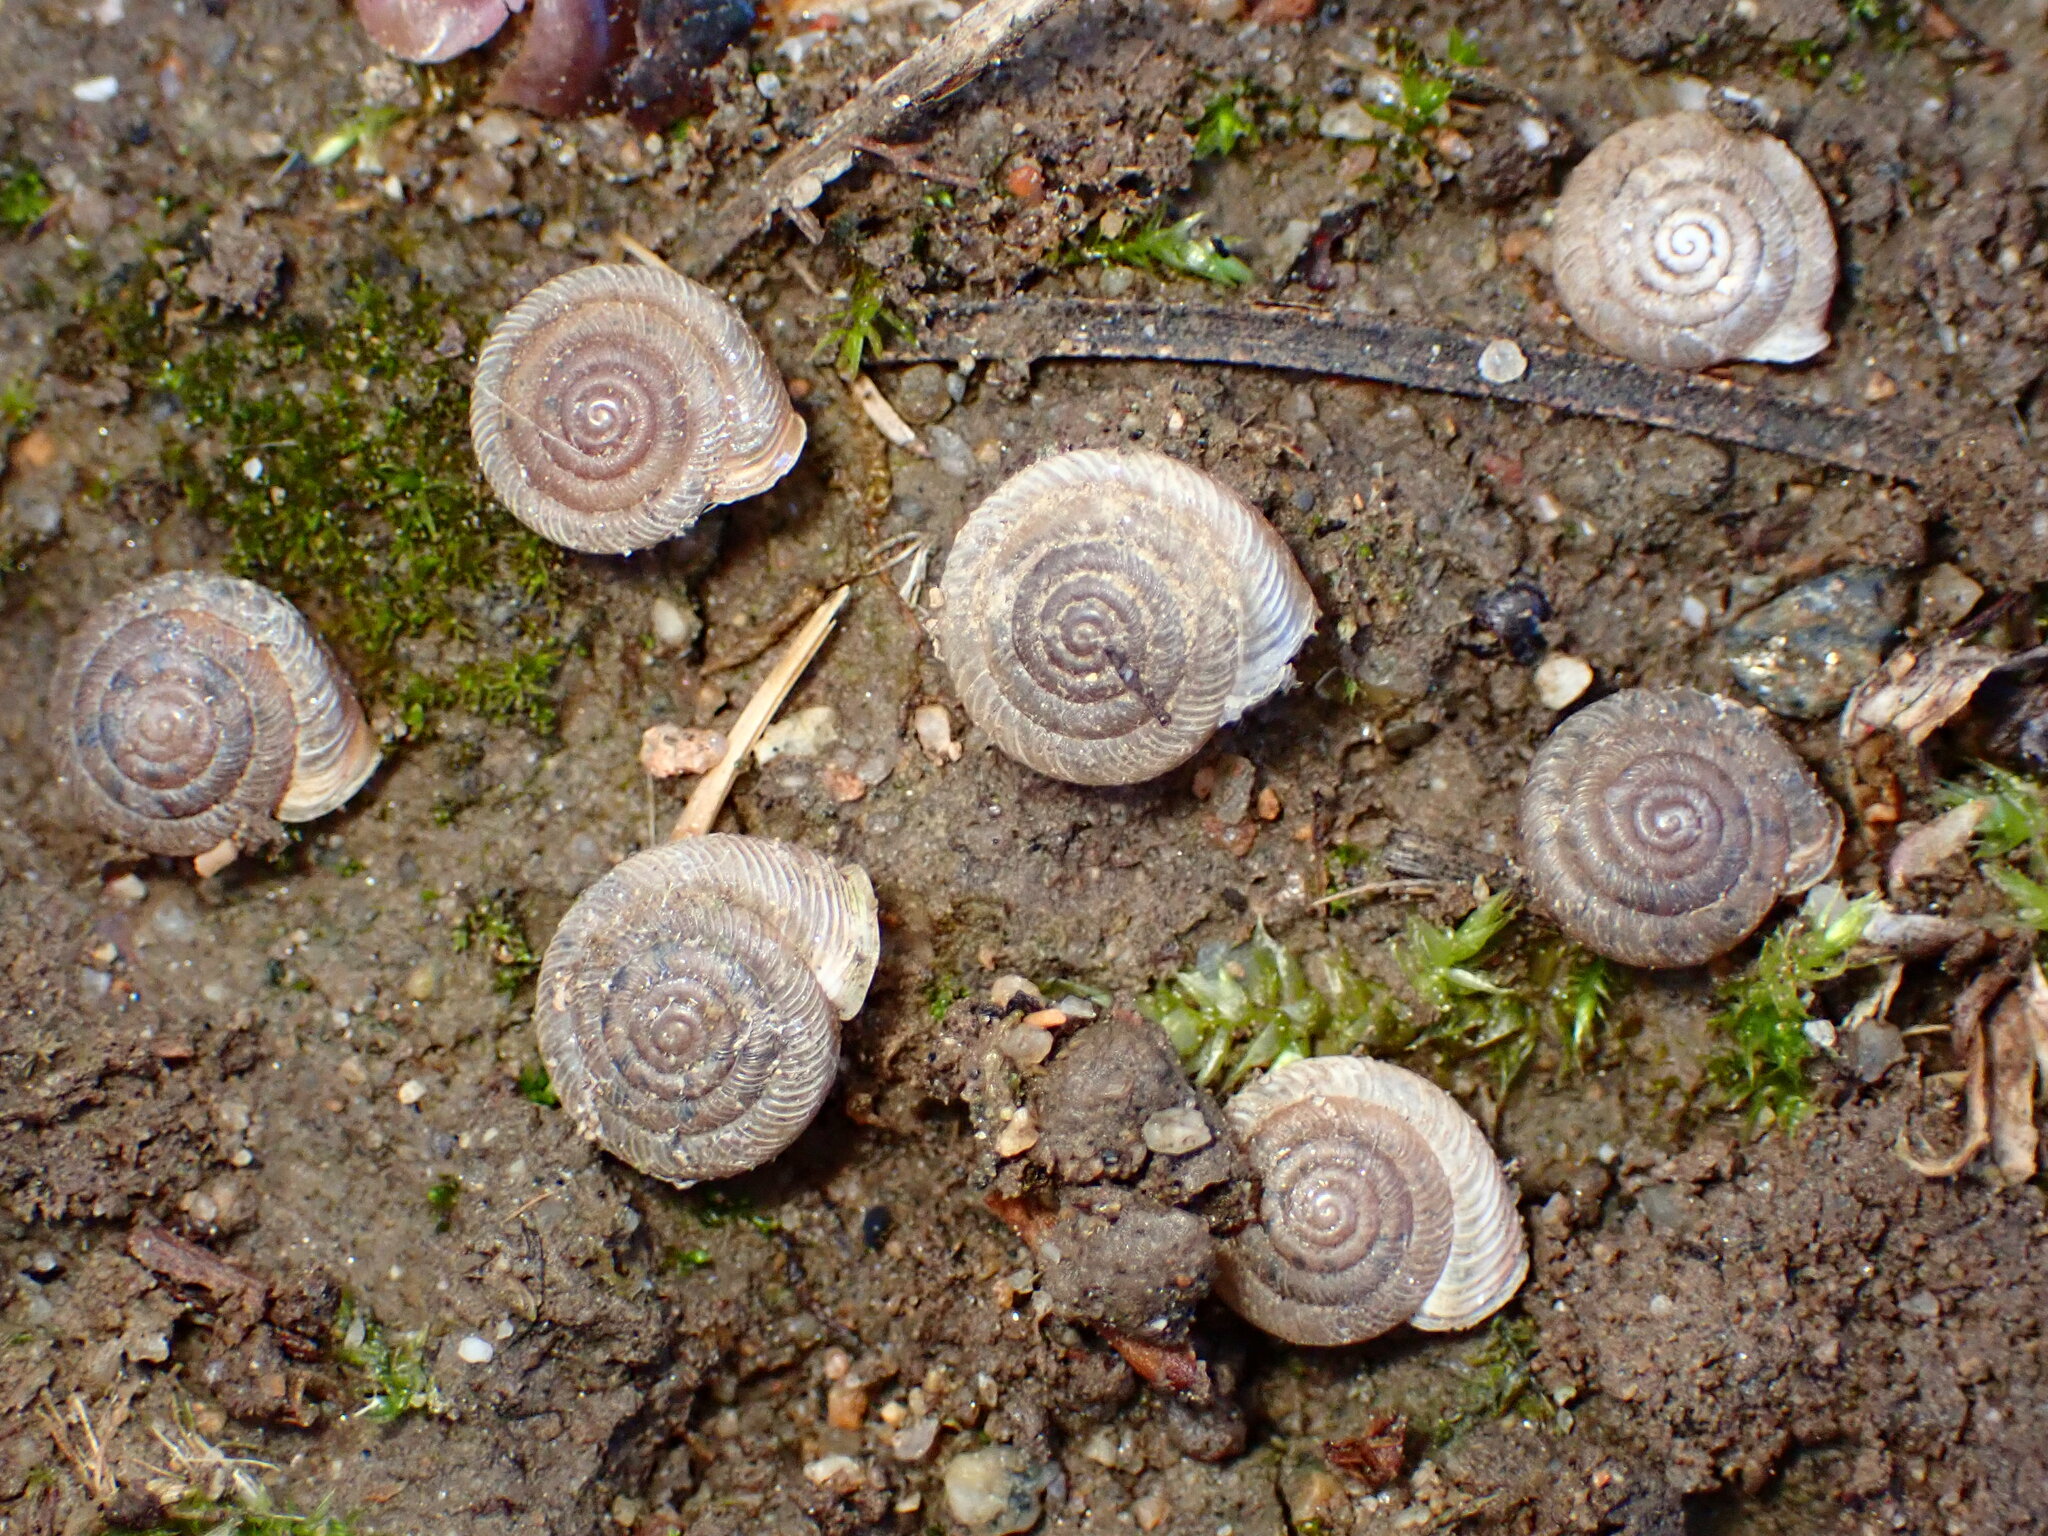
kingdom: Animalia
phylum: Mollusca
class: Gastropoda
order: Stylommatophora
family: Polygyridae
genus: Polygyra
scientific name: Polygyra cereolus
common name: Southern flatcone snail
